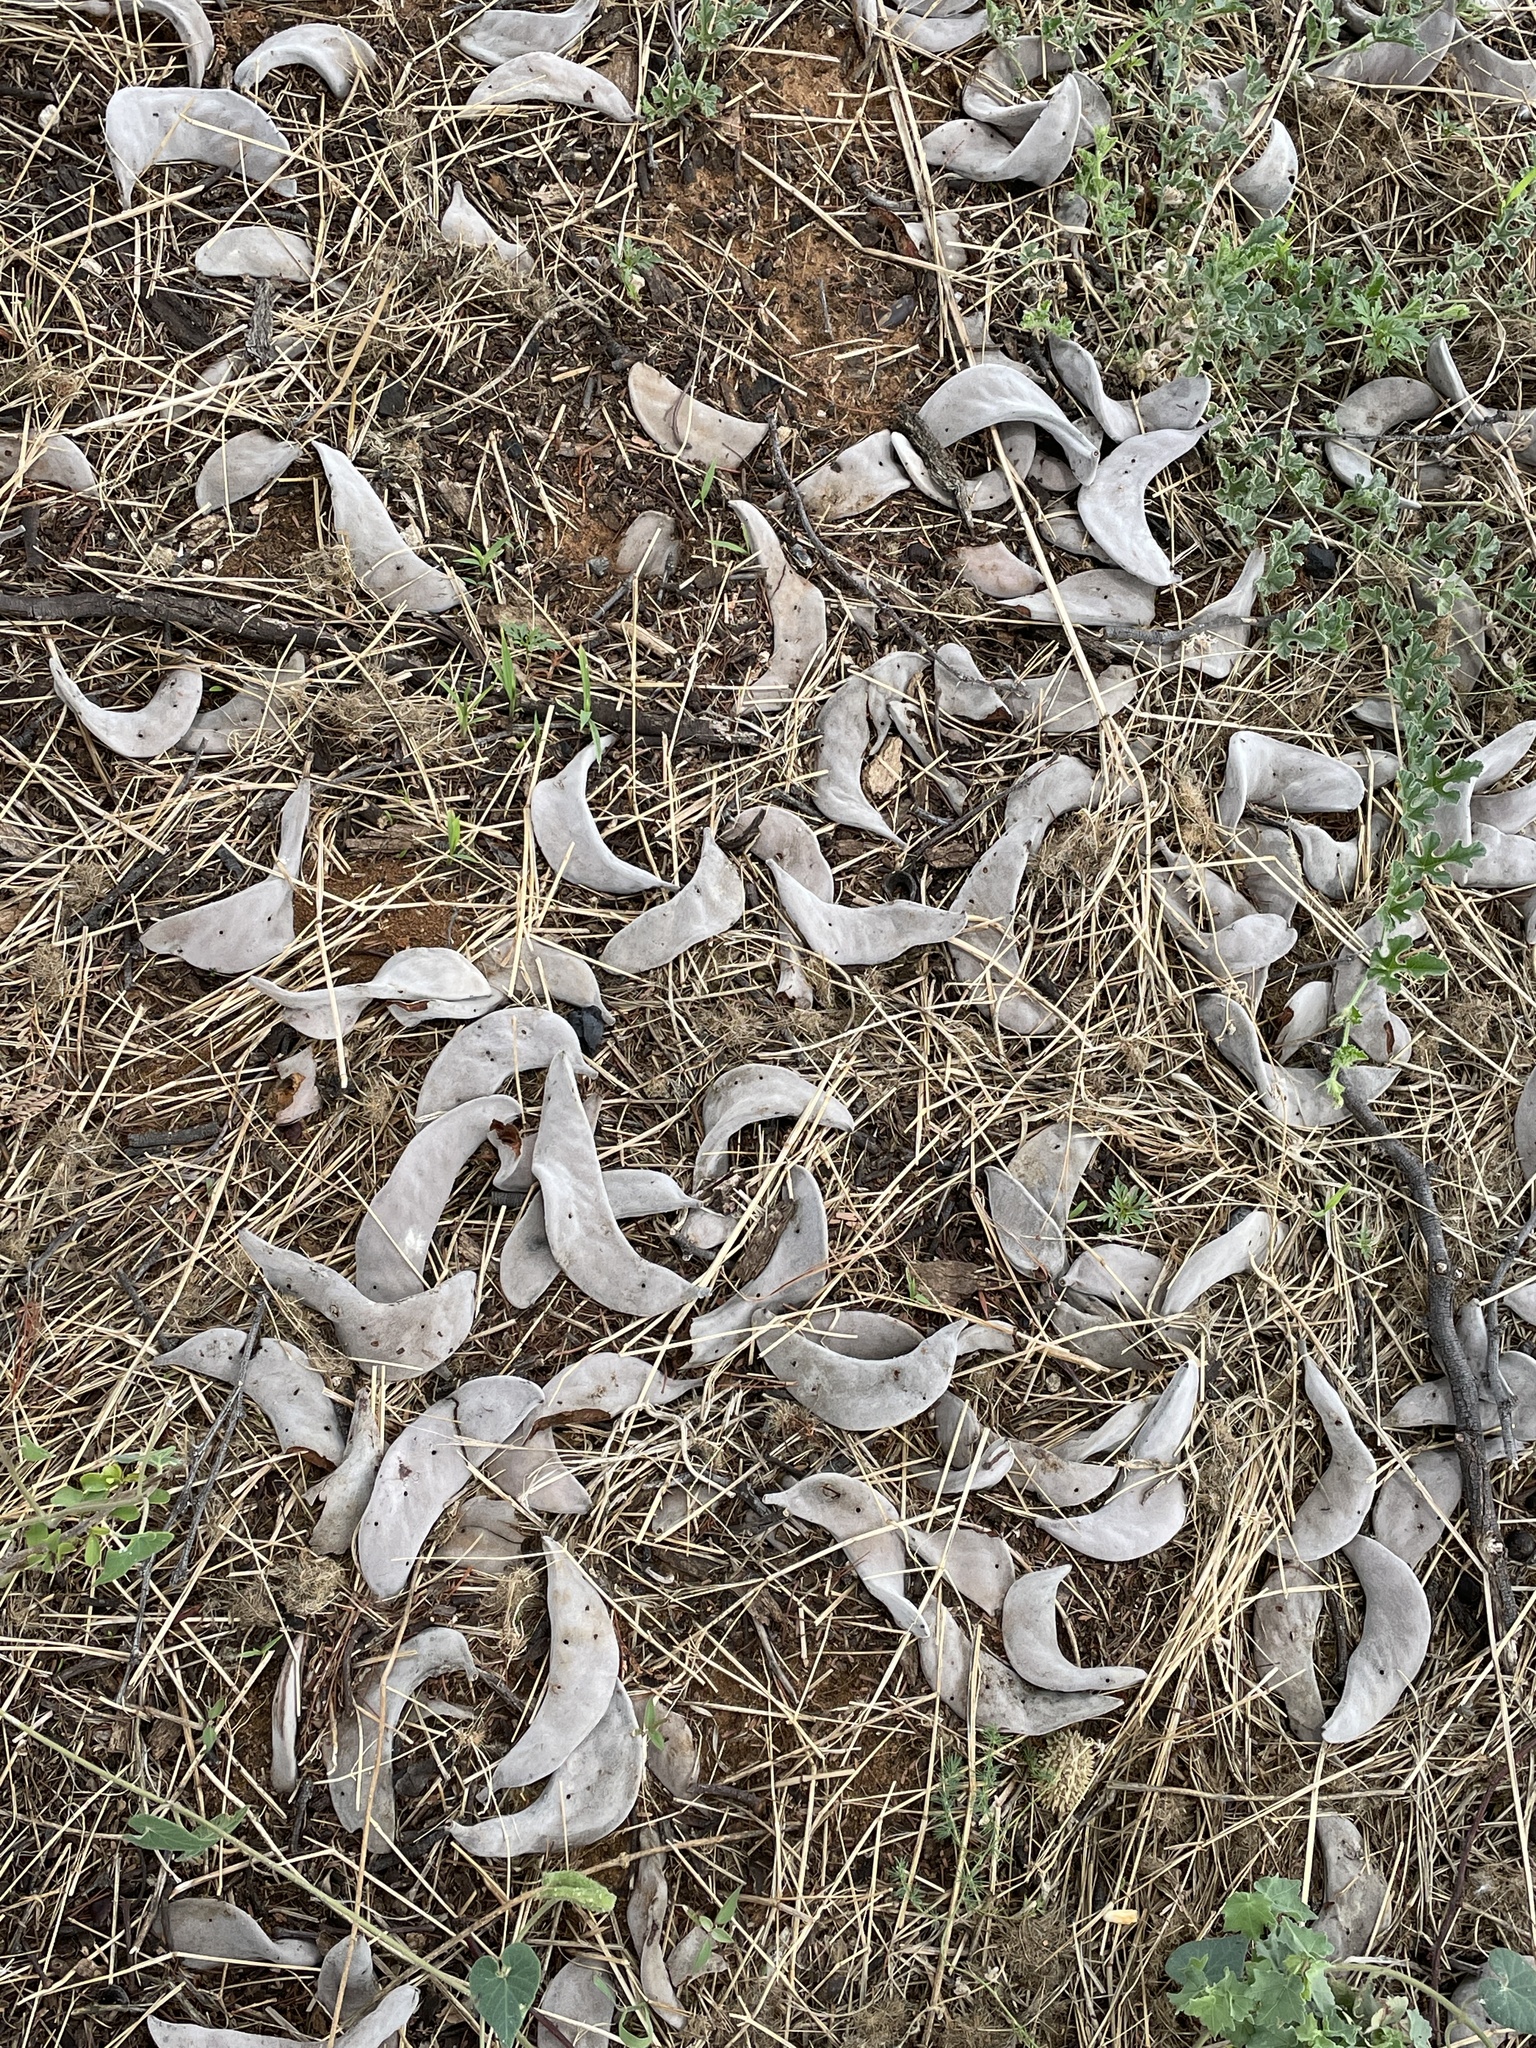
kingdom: Plantae
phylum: Tracheophyta
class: Magnoliopsida
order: Fabales
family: Fabaceae
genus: Vachellia
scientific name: Vachellia erioloba
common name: Camel thorn
